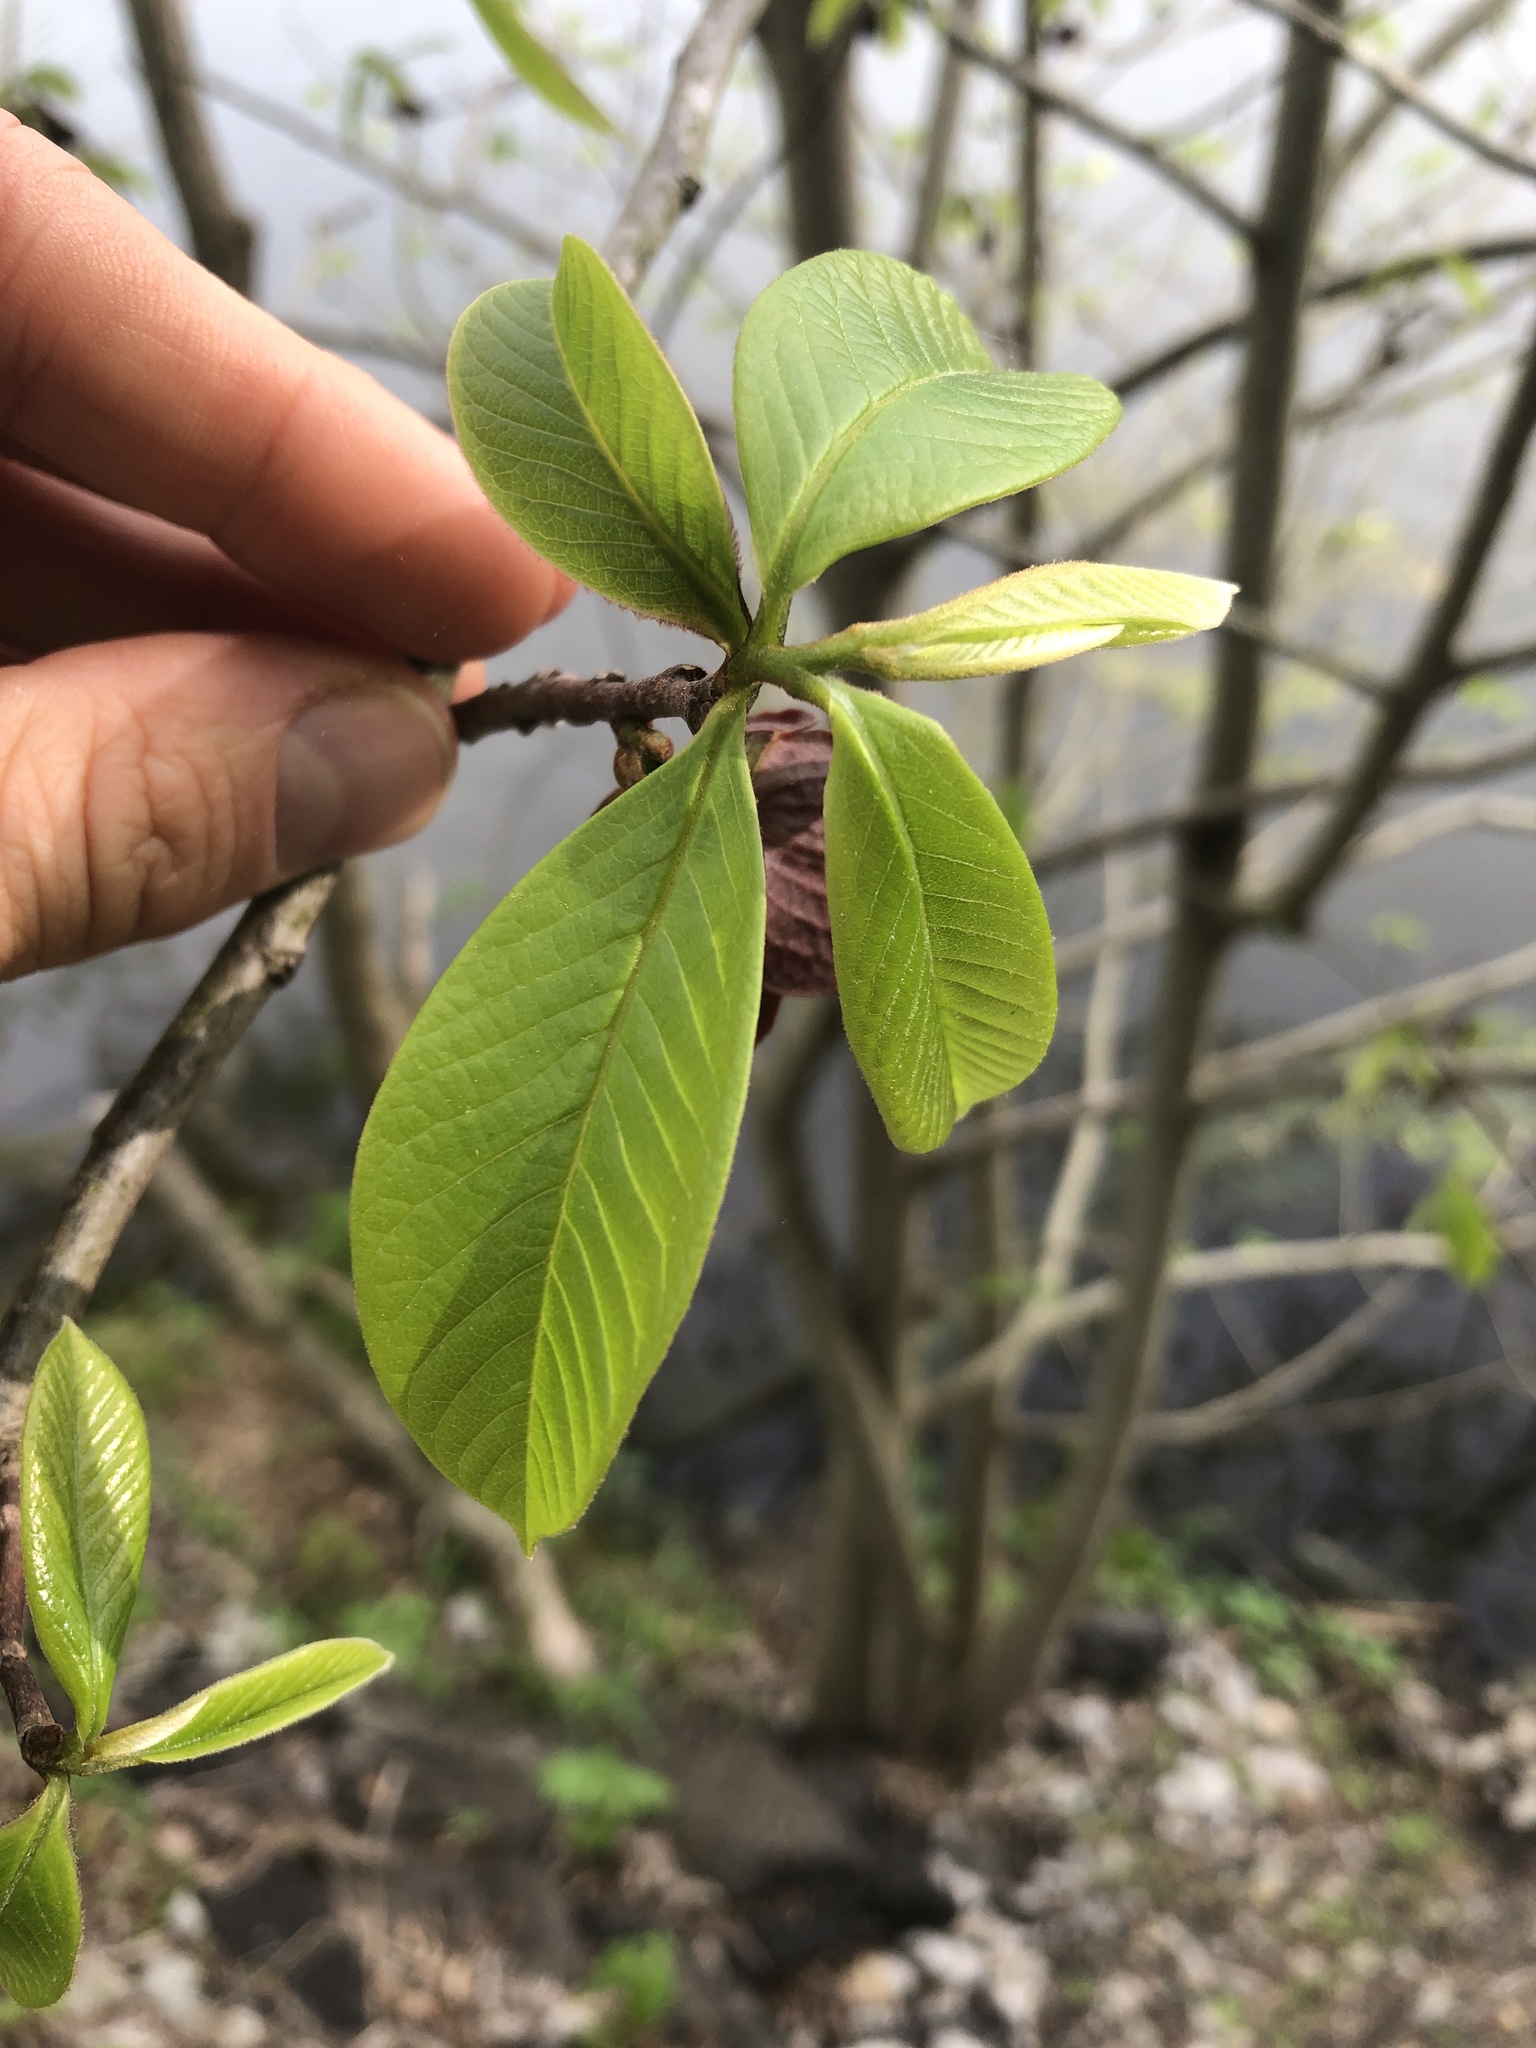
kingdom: Plantae
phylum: Tracheophyta
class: Magnoliopsida
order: Magnoliales
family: Annonaceae
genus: Asimina
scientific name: Asimina triloba
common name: Dog-banana
